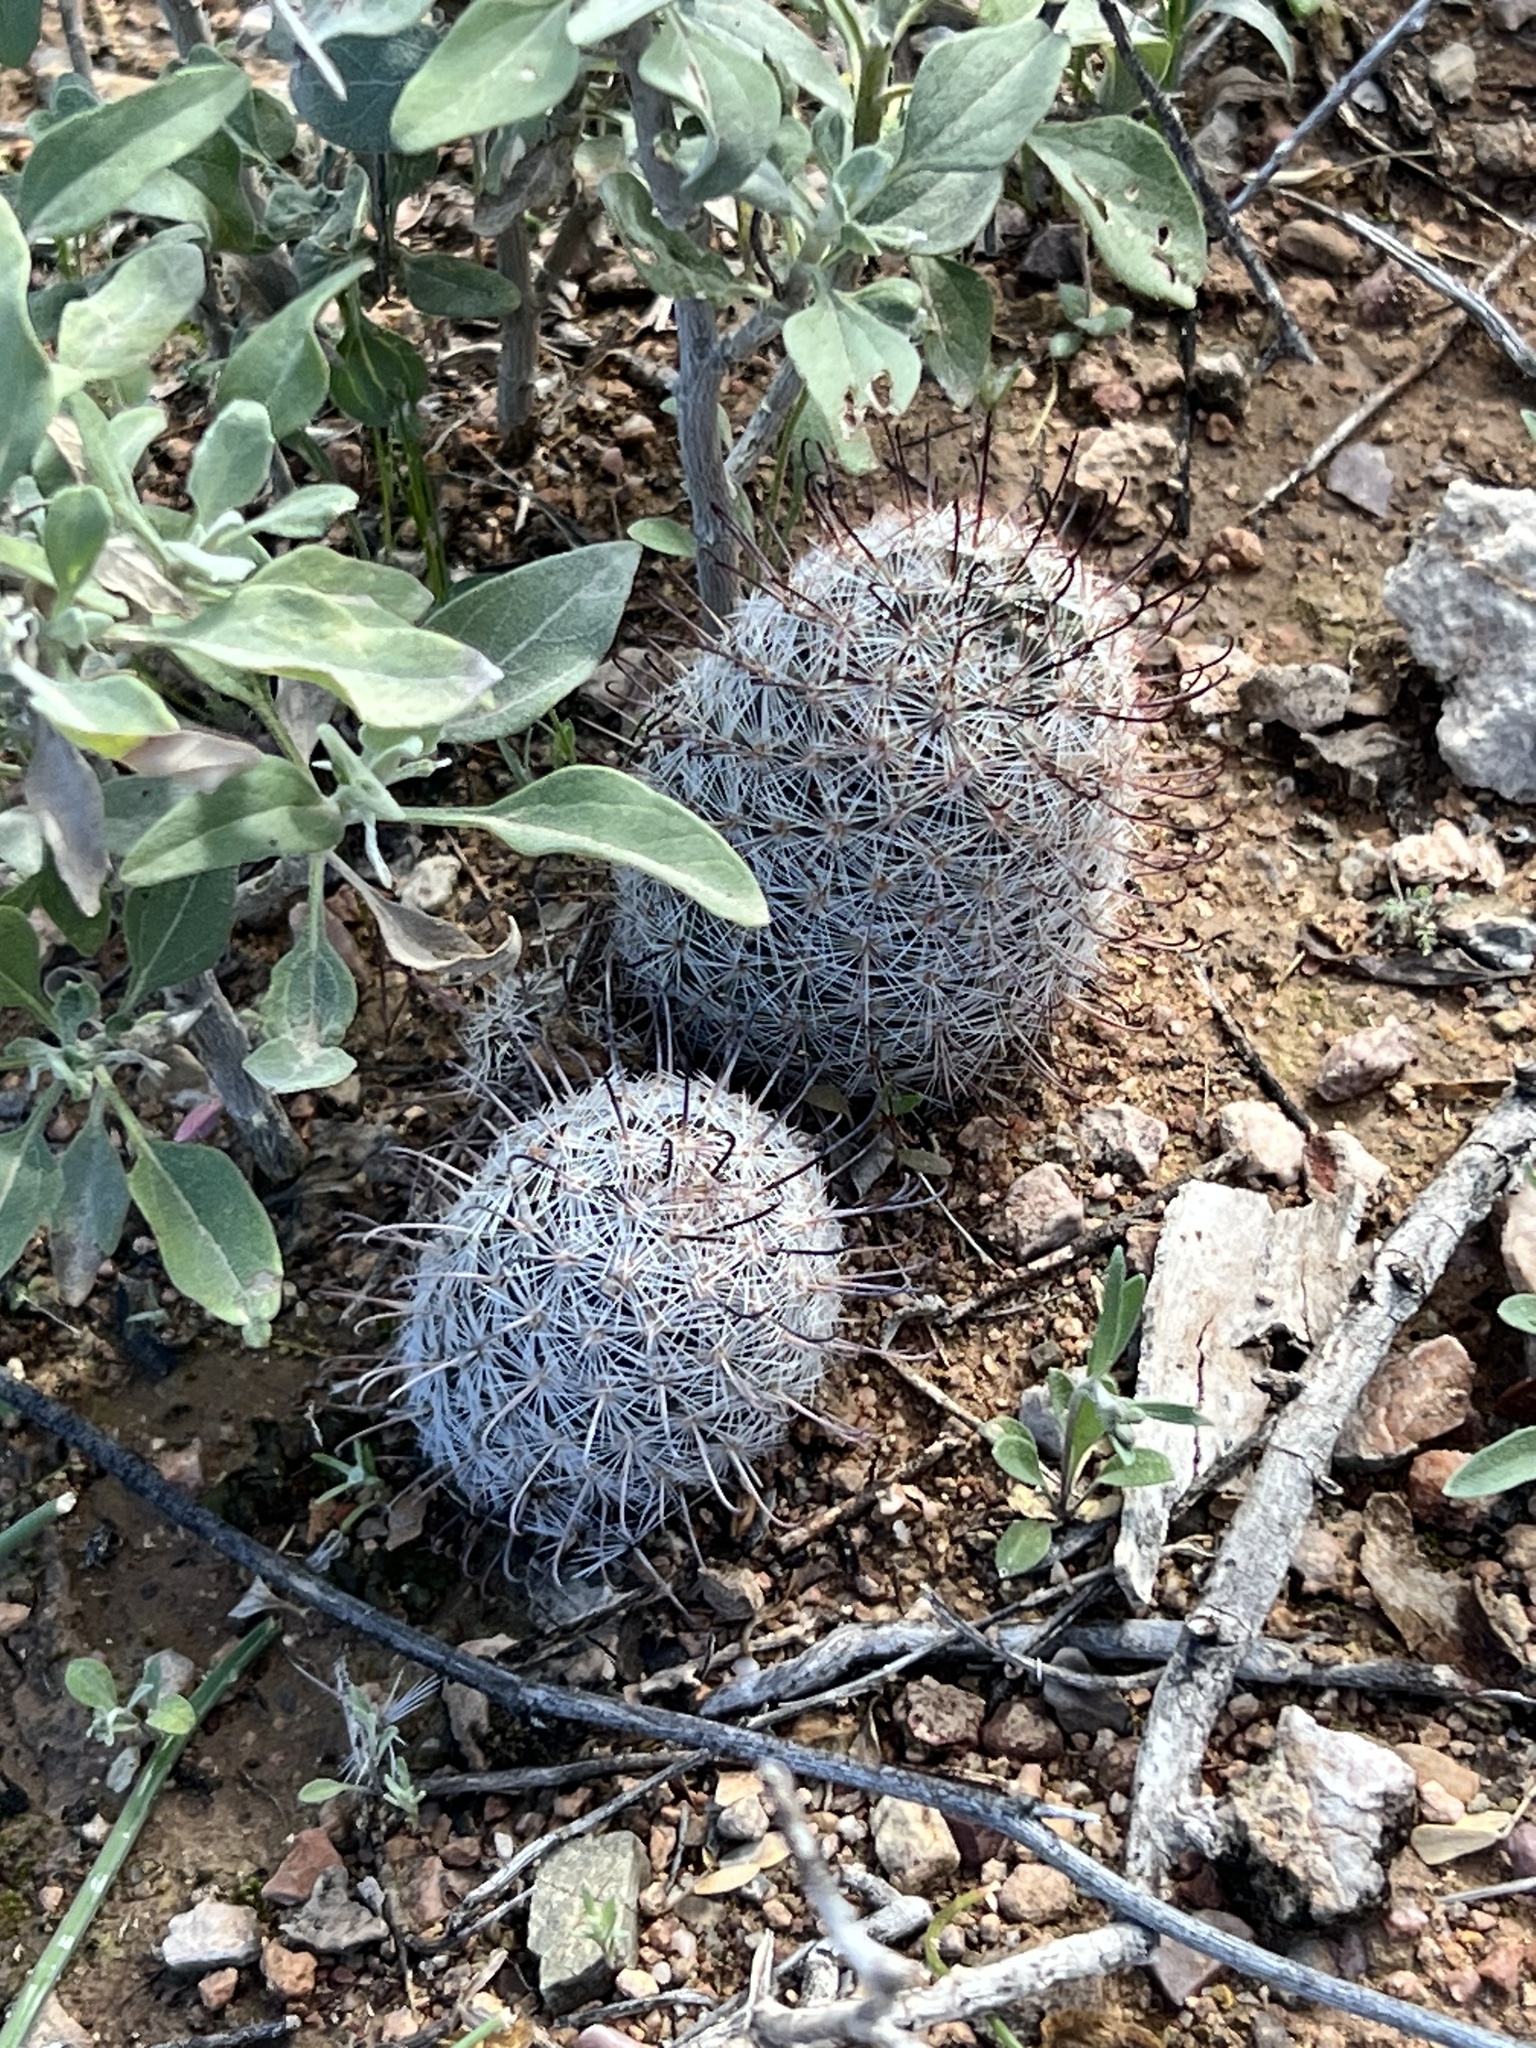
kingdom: Plantae
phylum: Tracheophyta
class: Magnoliopsida
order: Caryophyllales
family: Cactaceae
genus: Cochemiea
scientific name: Cochemiea grahamii
